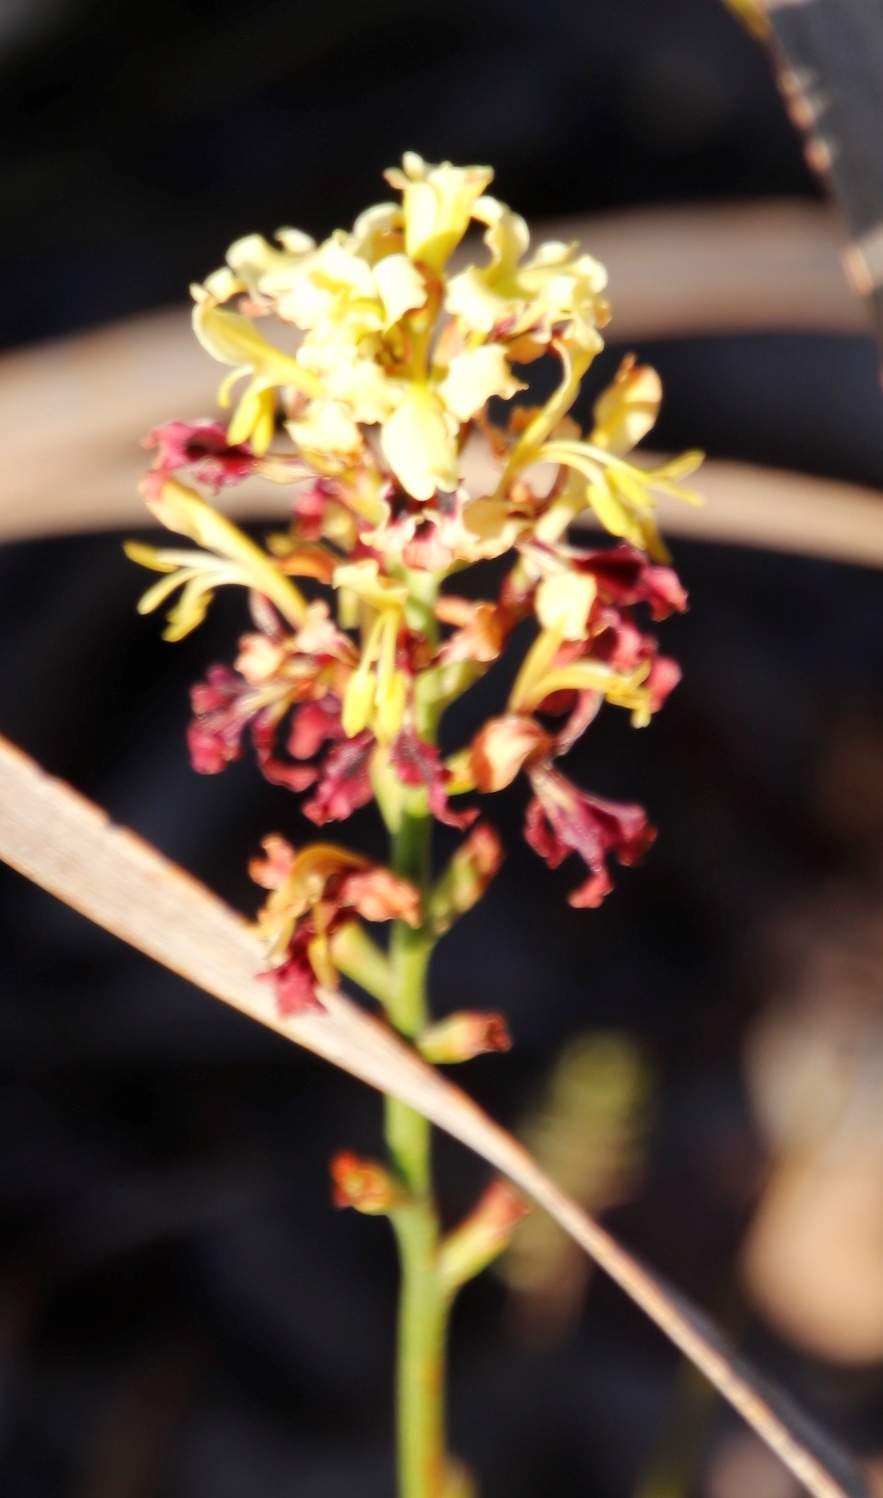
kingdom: Plantae
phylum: Tracheophyta
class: Liliopsida
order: Asparagales
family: Iridaceae
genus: Tritoniopsis
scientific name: Tritoniopsis parviflora
